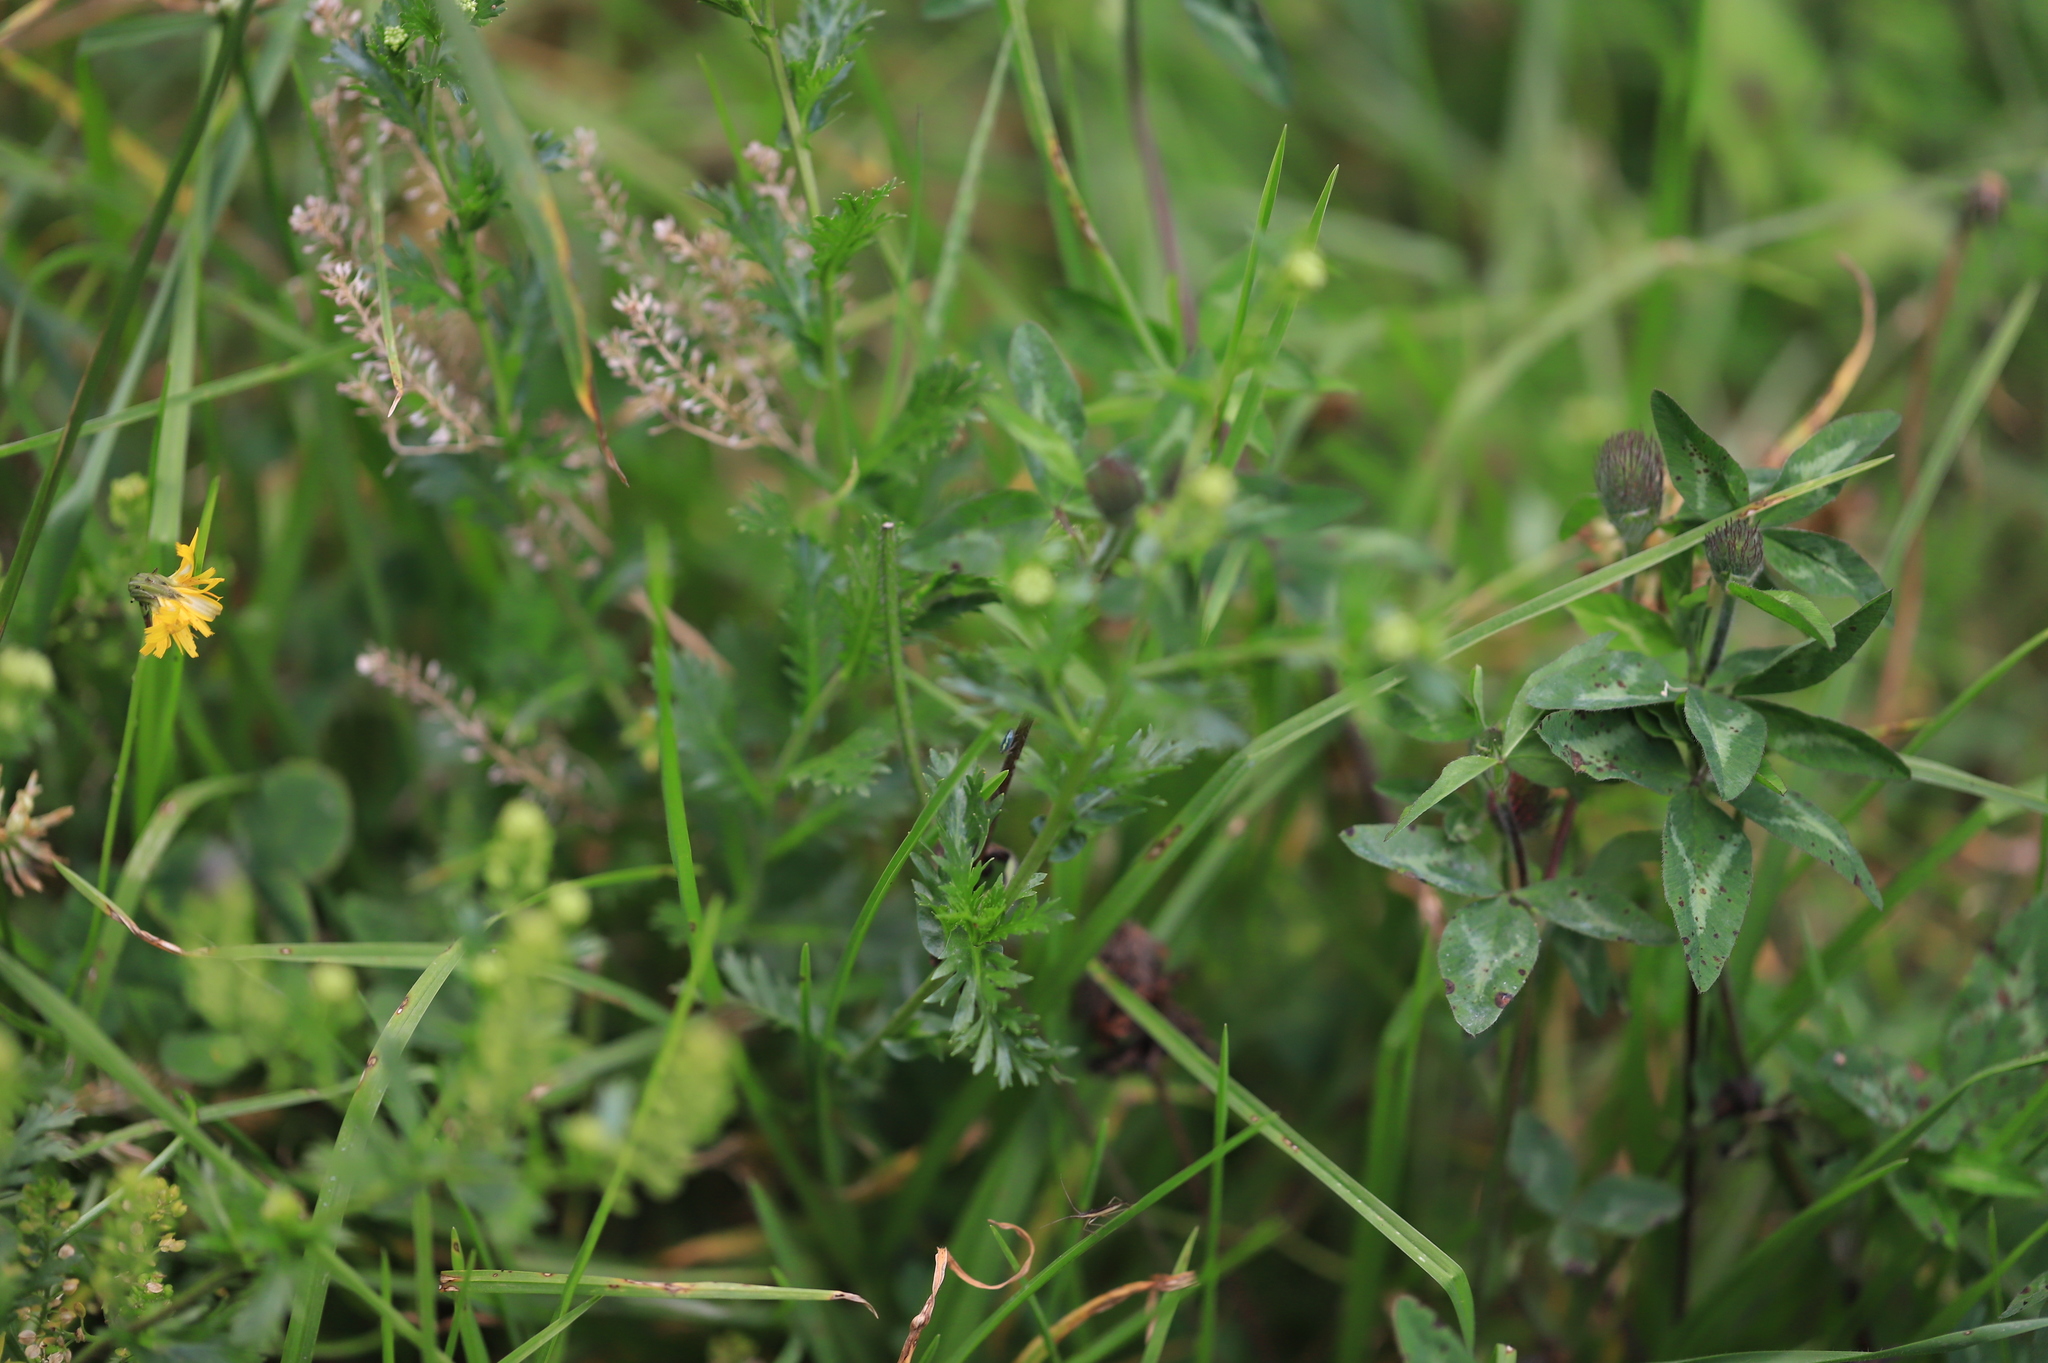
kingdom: Plantae
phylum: Tracheophyta
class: Magnoliopsida
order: Fabales
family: Fabaceae
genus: Trifolium
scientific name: Trifolium pratense
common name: Red clover
